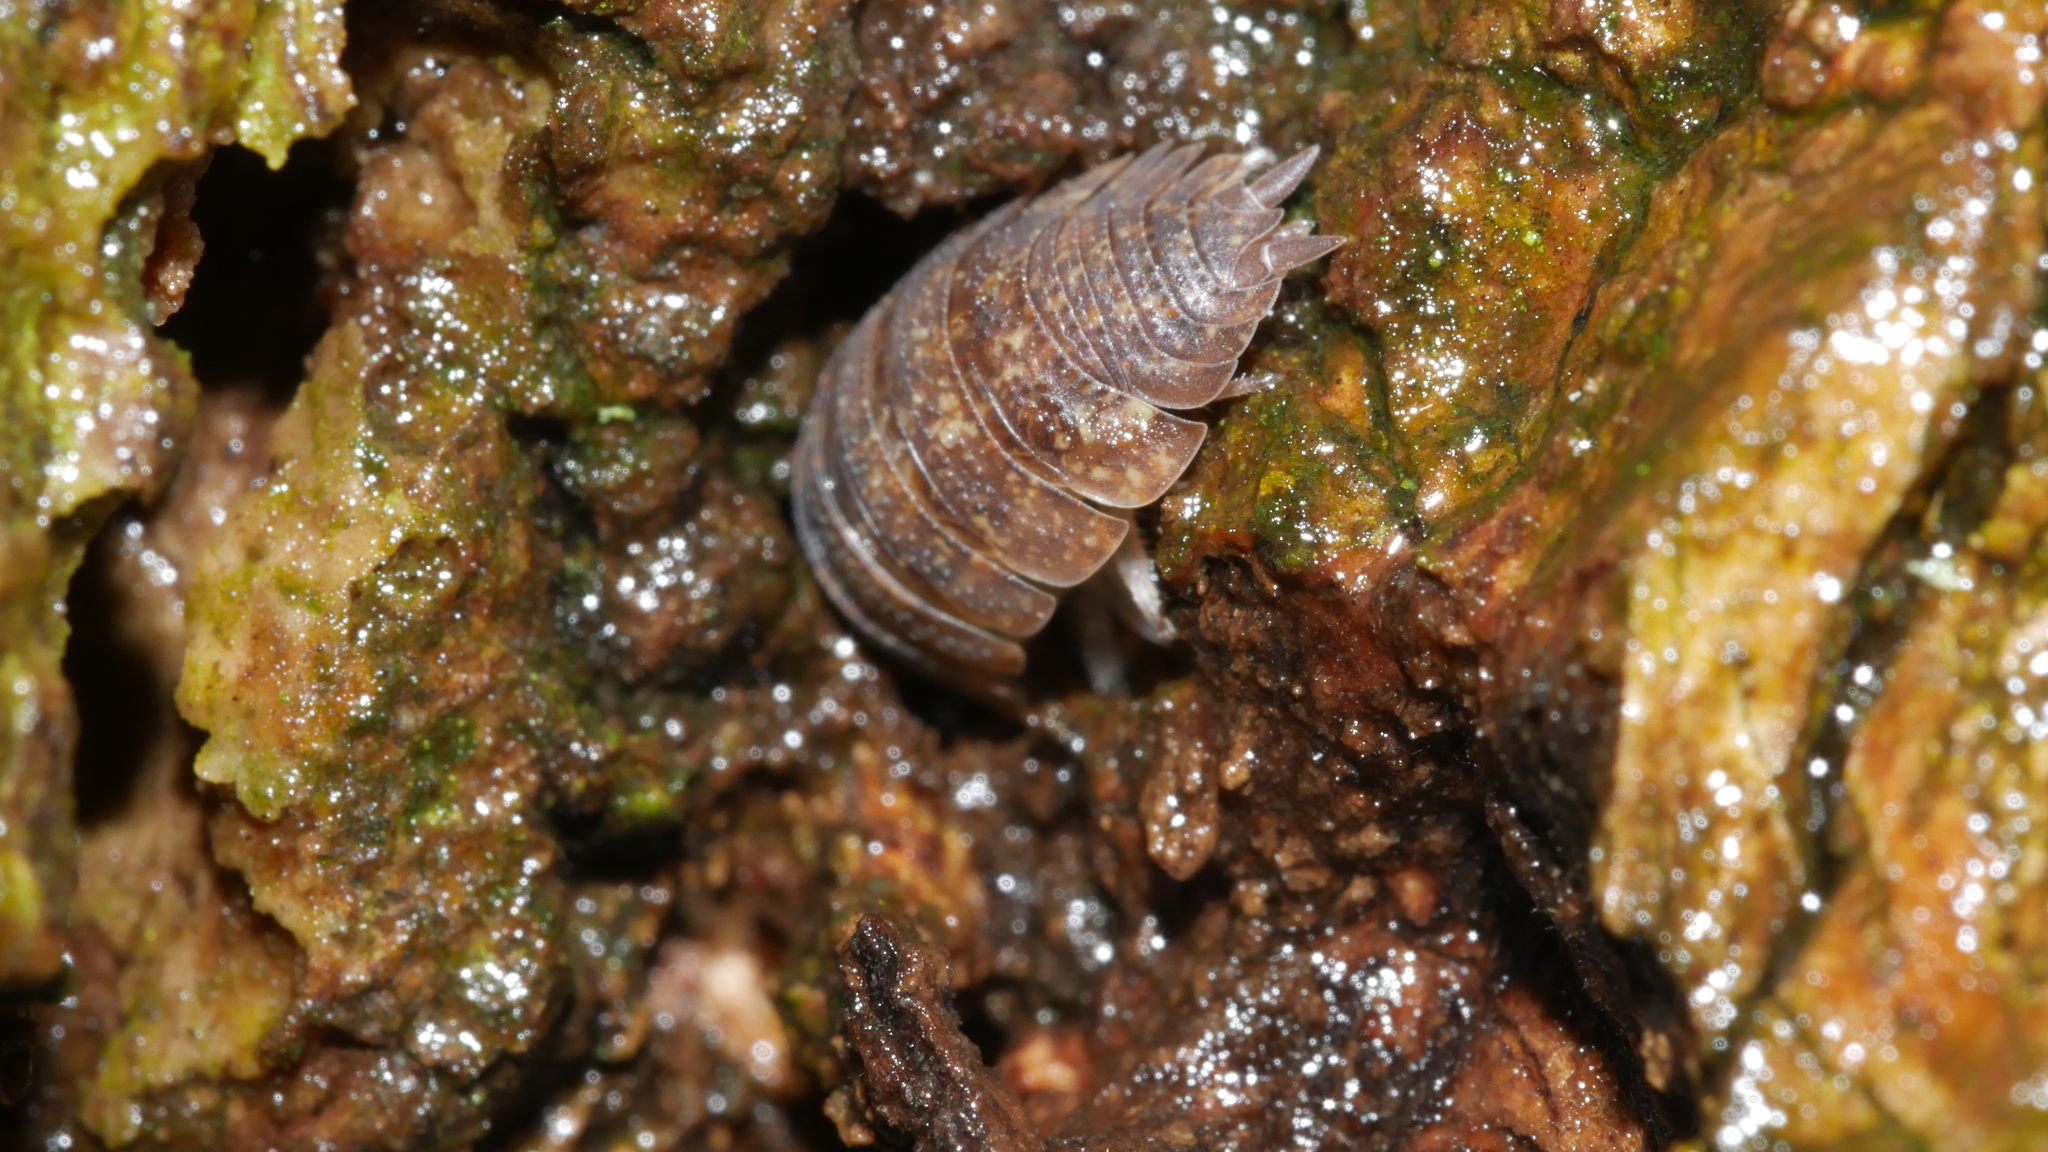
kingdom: Animalia
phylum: Arthropoda
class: Malacostraca
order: Isopoda
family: Porcellionidae
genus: Porcellio
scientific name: Porcellio scaber
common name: Common rough woodlouse
